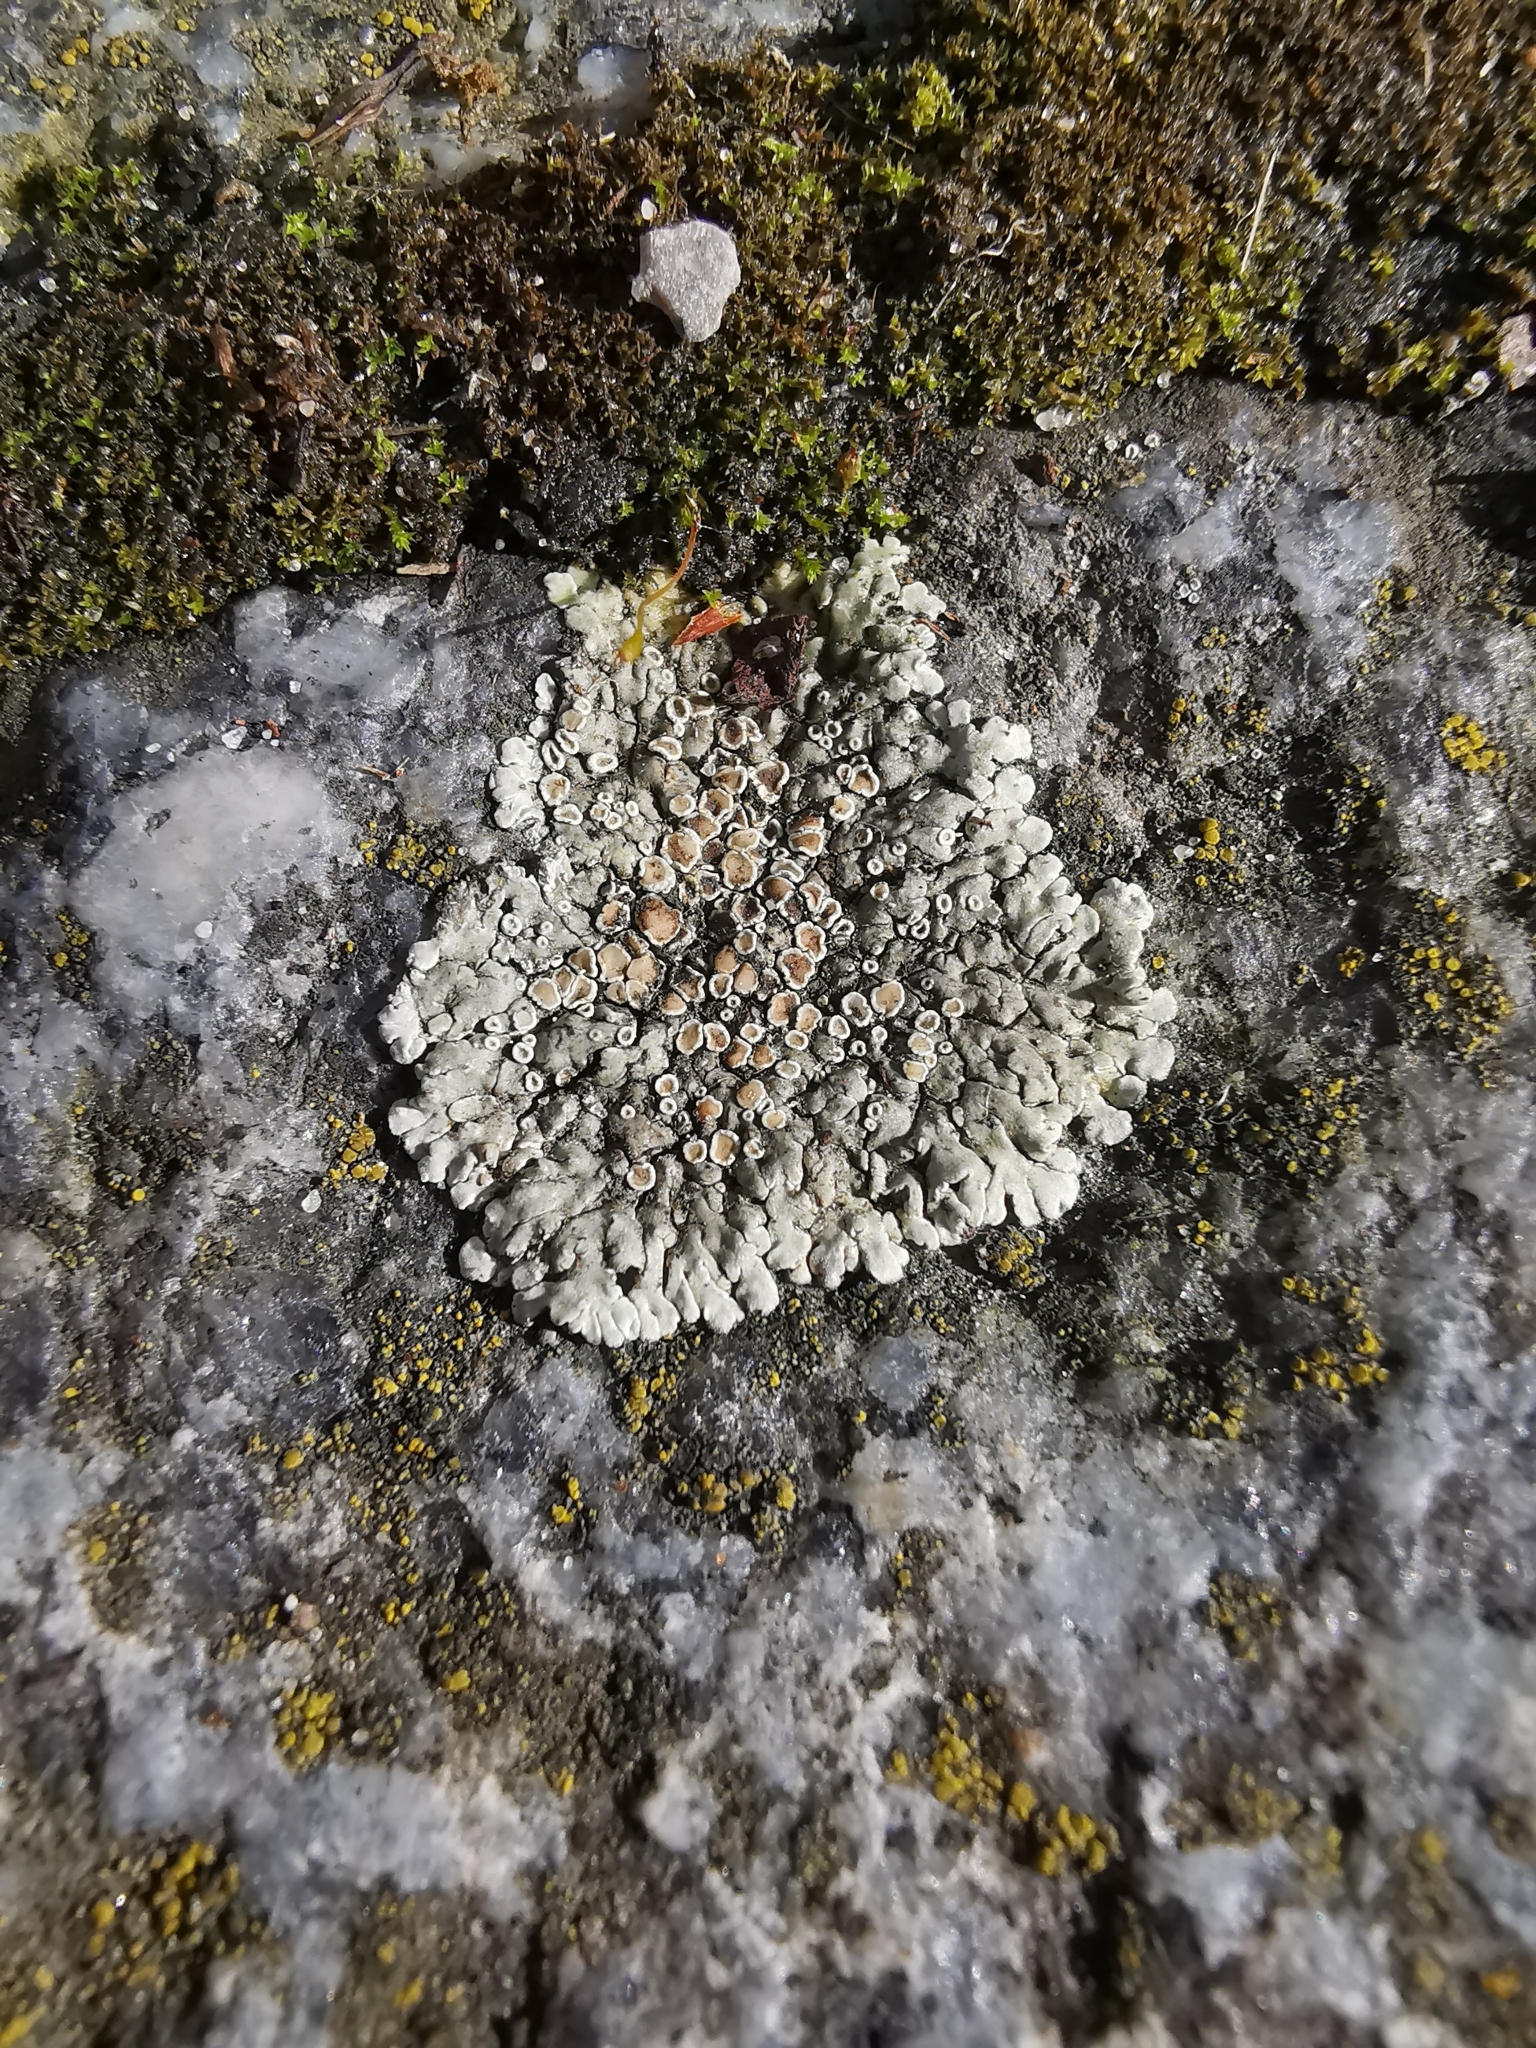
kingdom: Fungi
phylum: Ascomycota
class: Lecanoromycetes
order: Lecanorales
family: Lecanoraceae
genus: Protoparmeliopsis
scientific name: Protoparmeliopsis muralis
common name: Stonewall rim lichen
